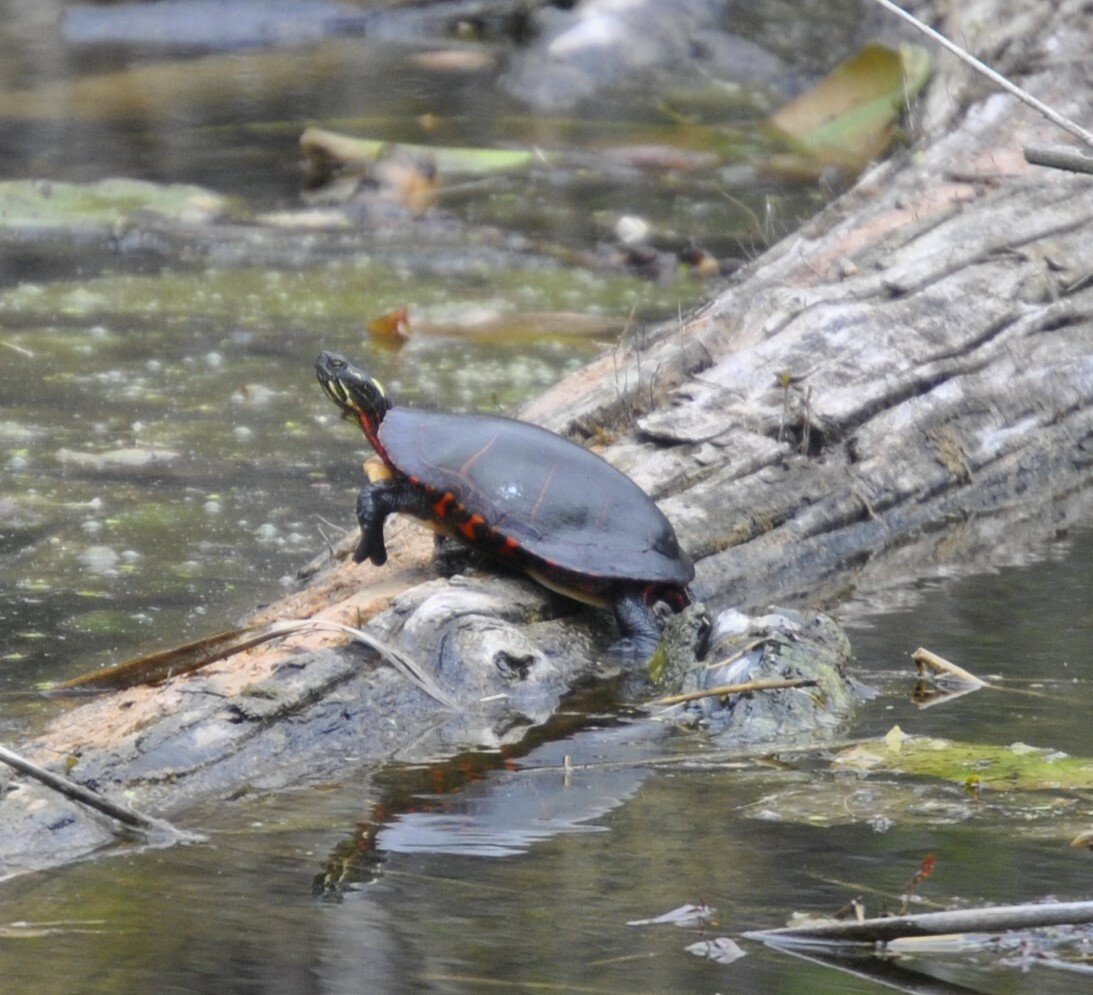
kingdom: Animalia
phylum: Chordata
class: Testudines
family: Emydidae
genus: Chrysemys
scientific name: Chrysemys picta
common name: Painted turtle
